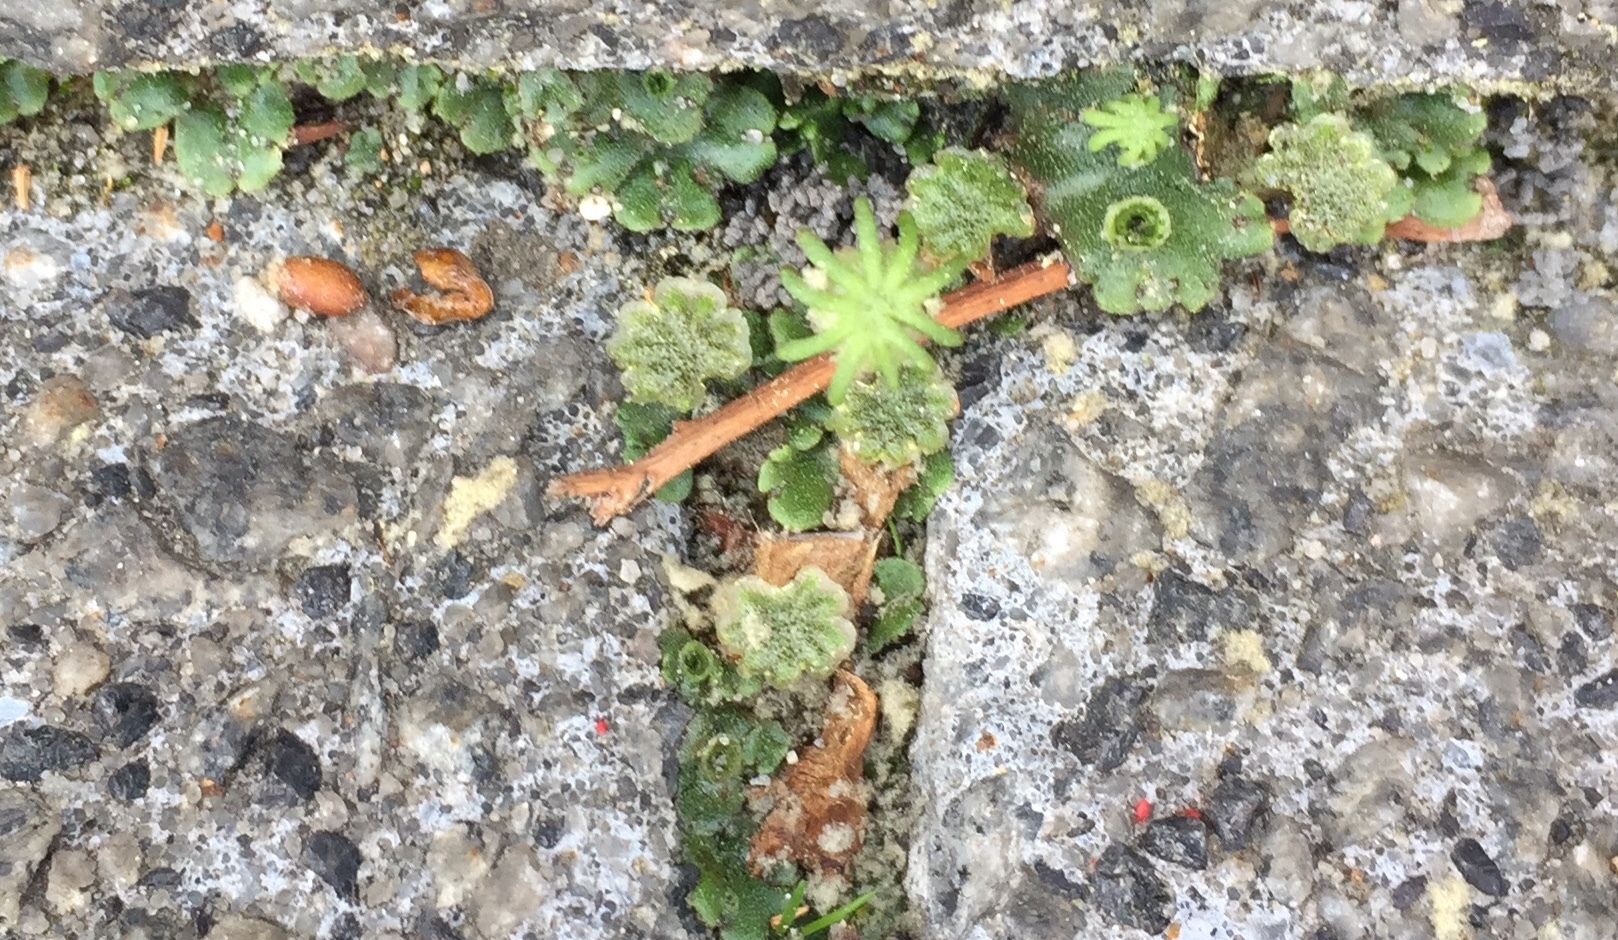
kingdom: Plantae
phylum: Marchantiophyta
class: Marchantiopsida
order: Marchantiales
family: Marchantiaceae
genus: Marchantia
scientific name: Marchantia polymorpha
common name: Common liverwort
